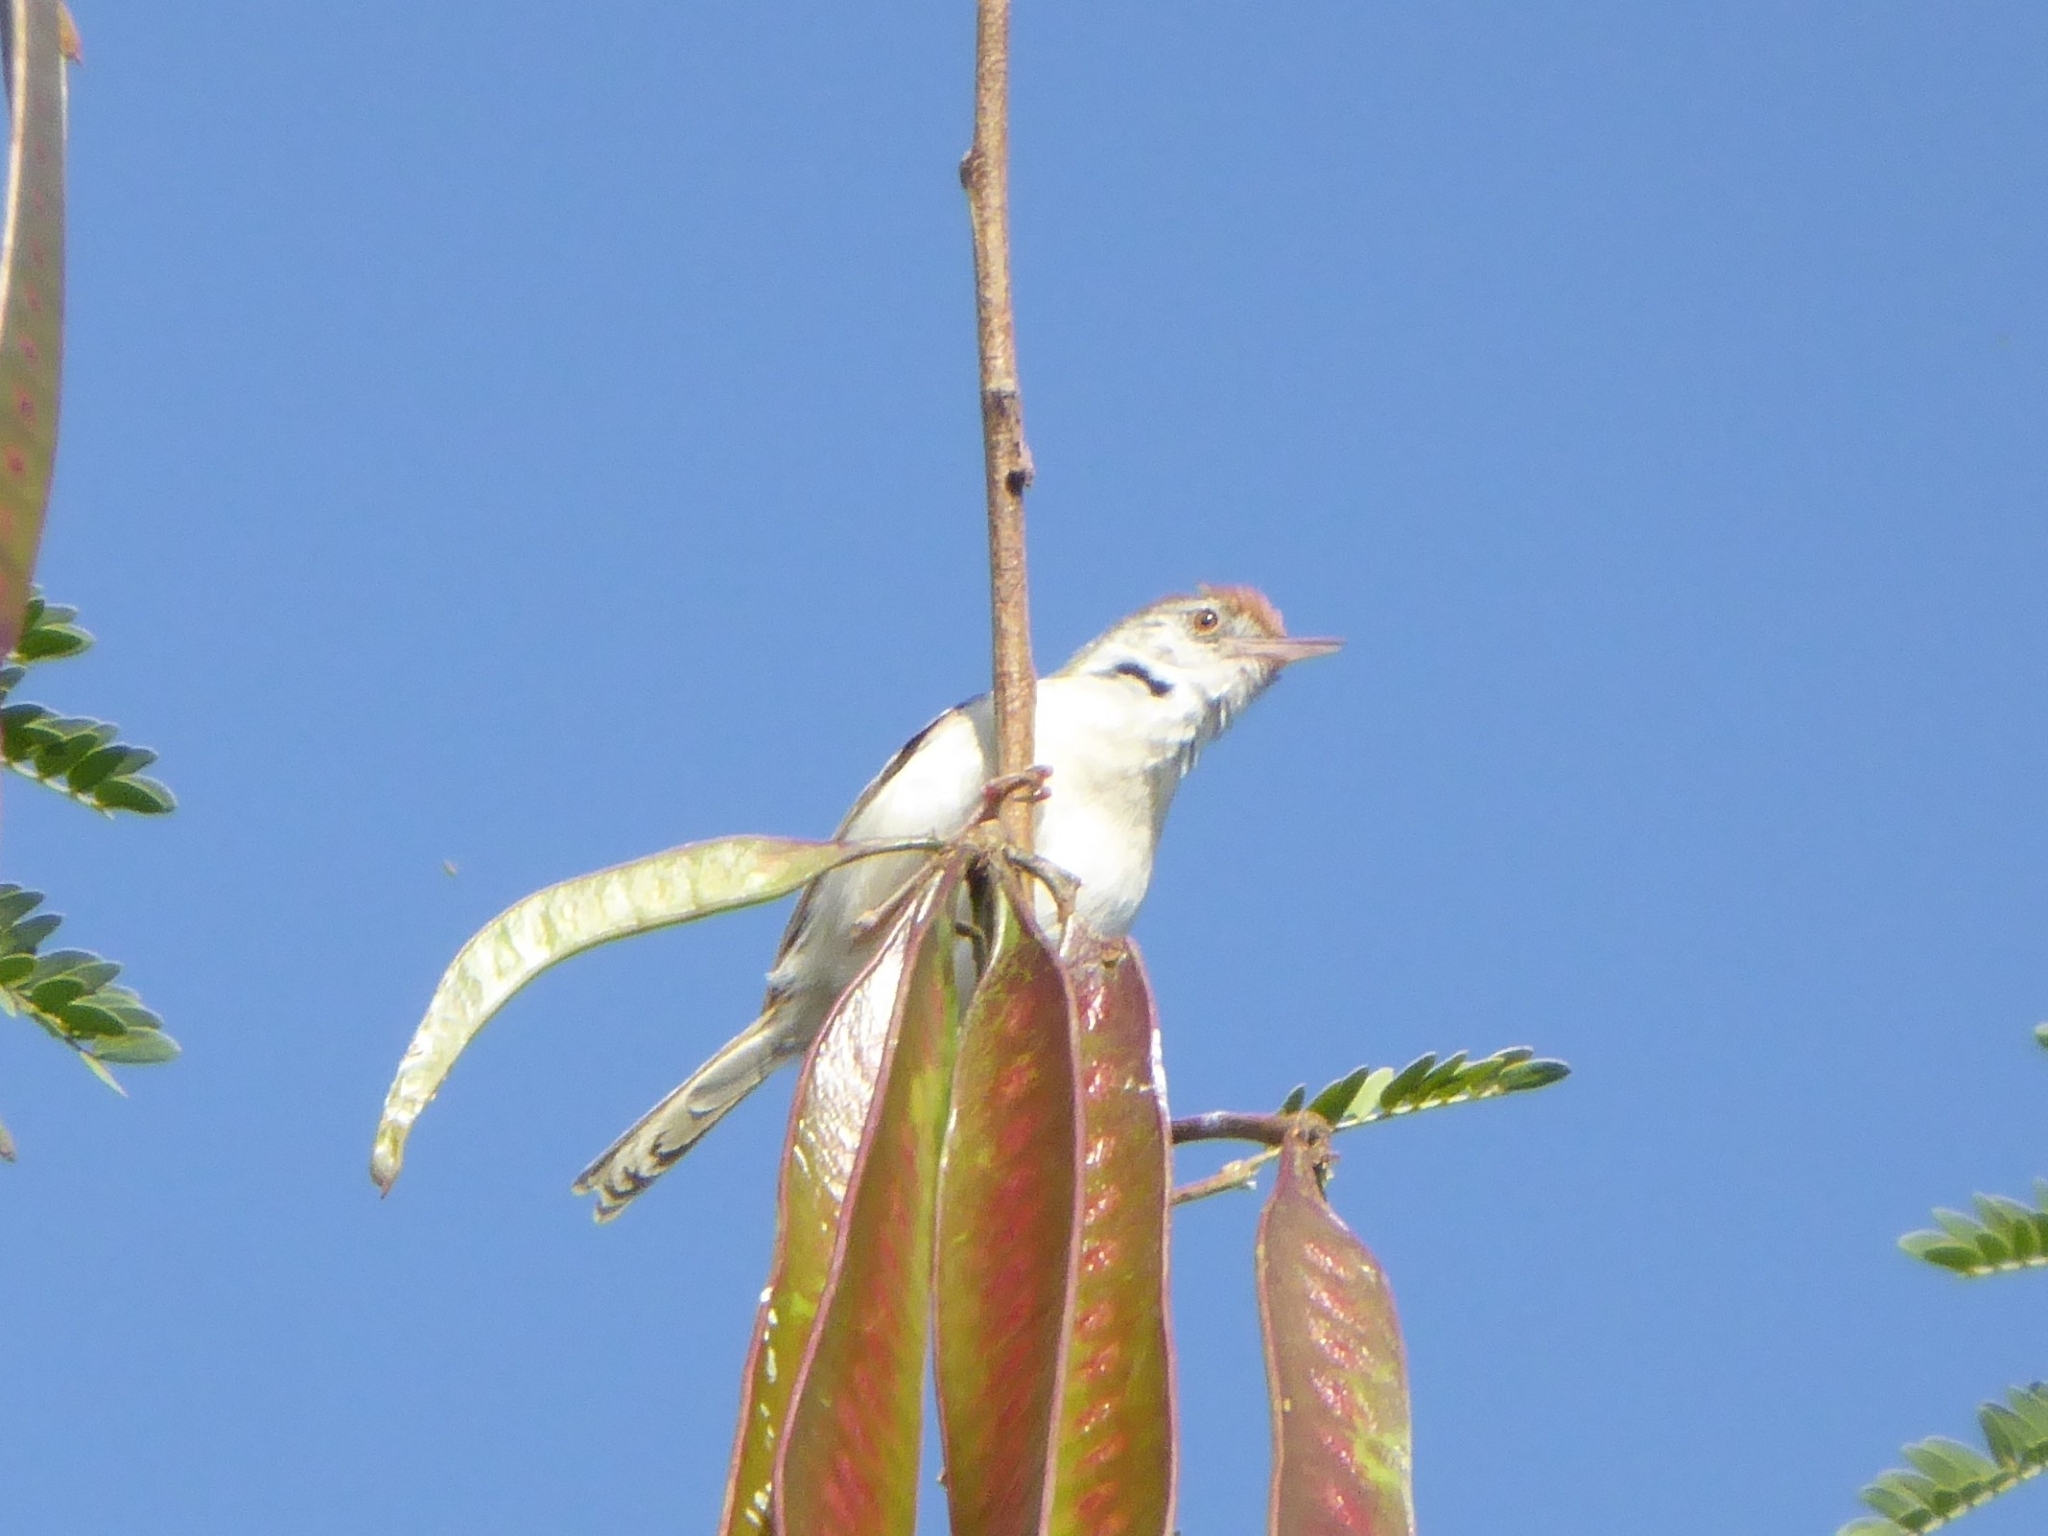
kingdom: Animalia
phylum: Chordata
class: Aves
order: Passeriformes
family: Cisticolidae
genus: Orthotomus
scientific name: Orthotomus sutorius
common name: Common tailorbird
